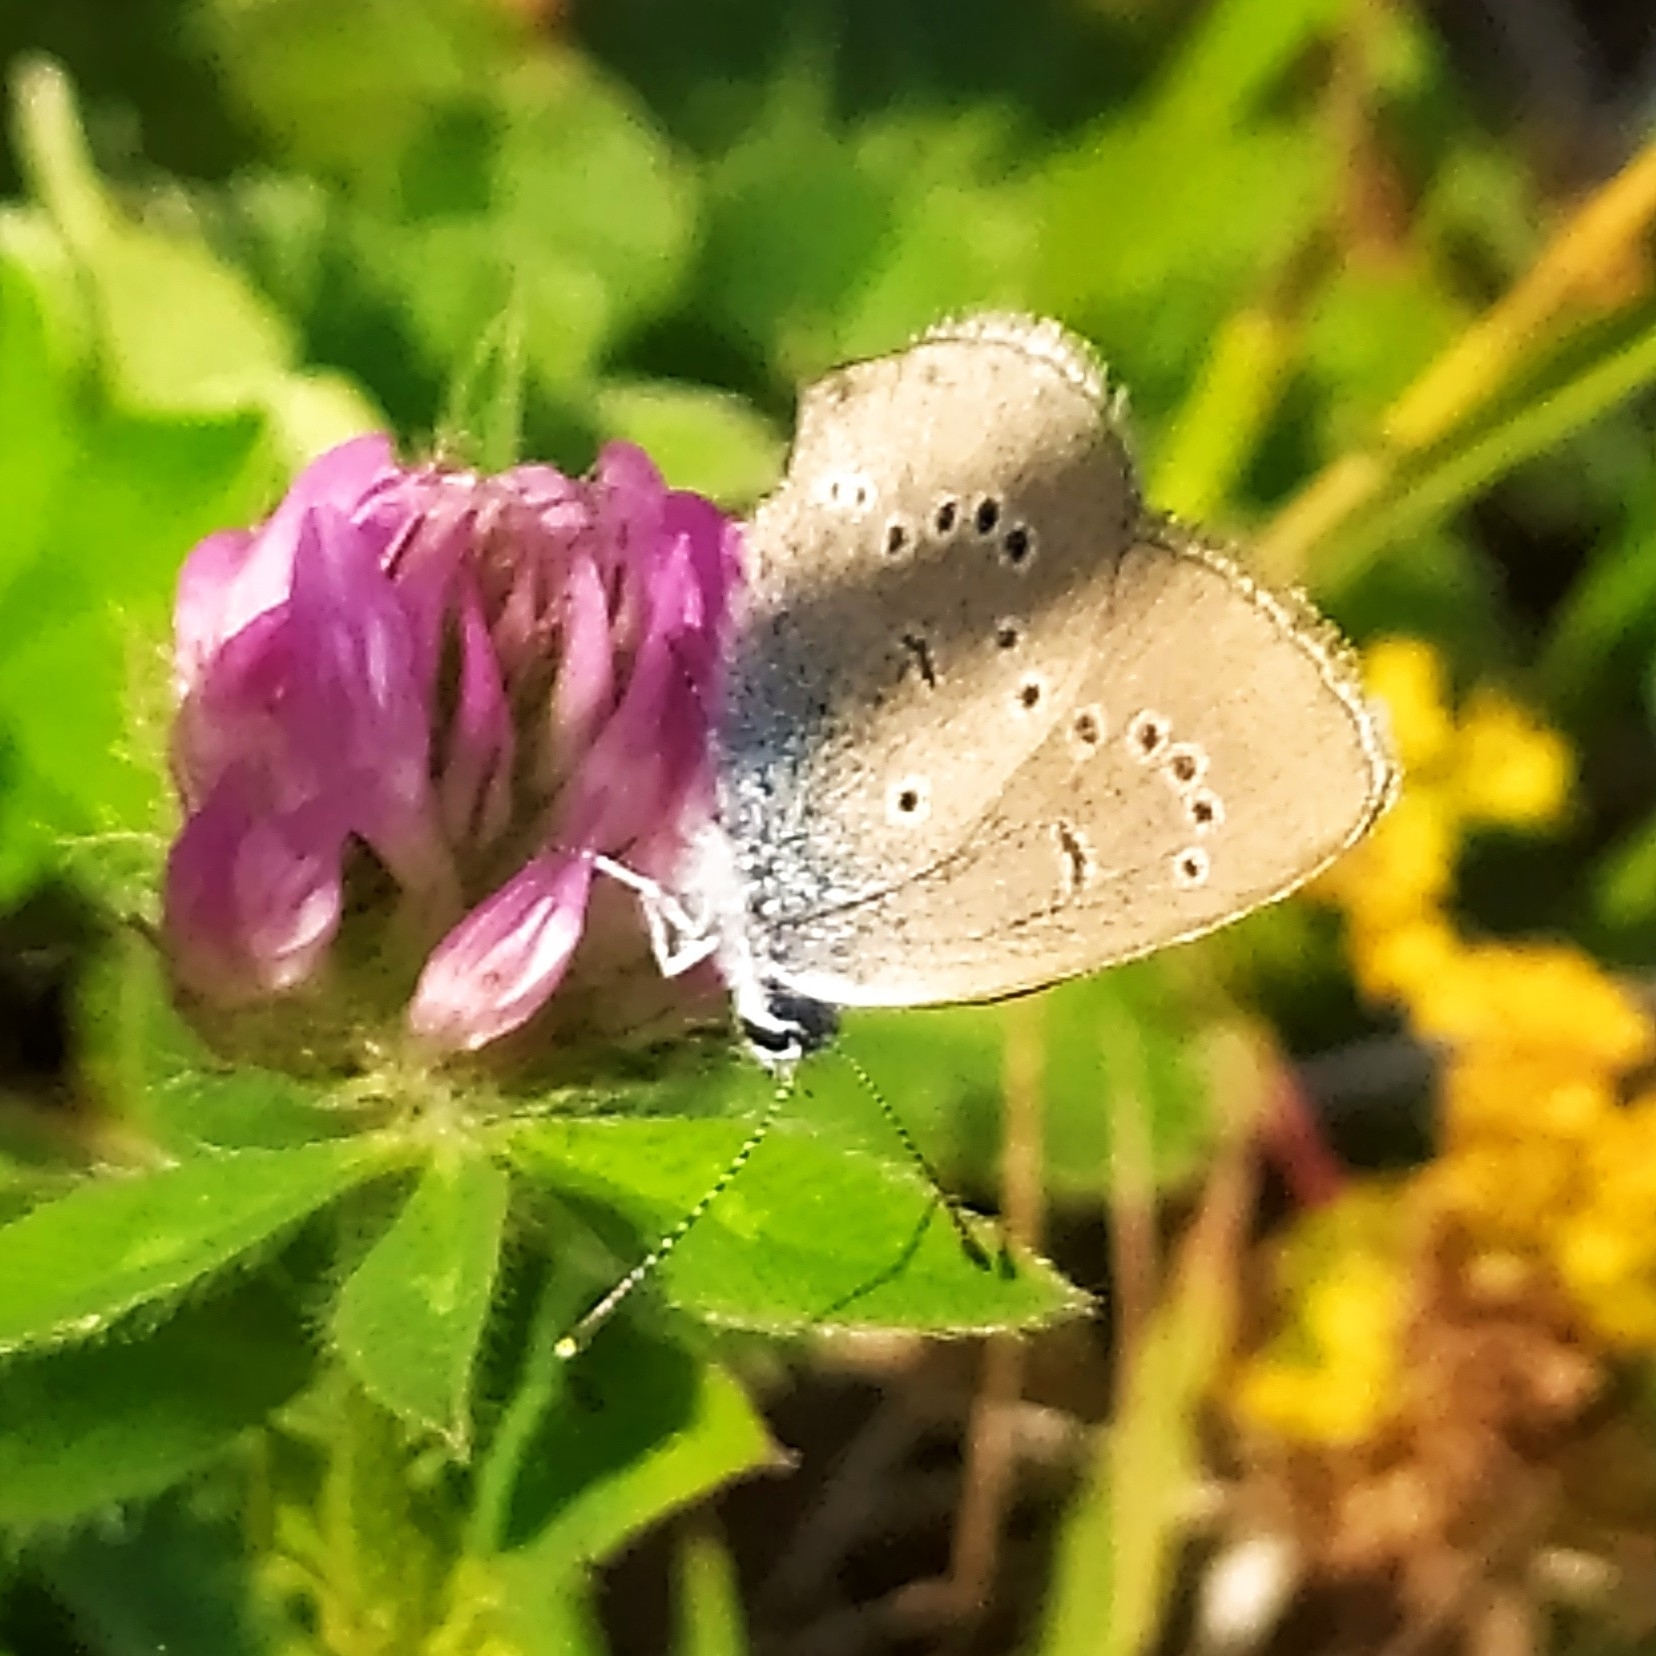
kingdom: Animalia
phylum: Arthropoda
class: Insecta
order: Lepidoptera
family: Lycaenidae
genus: Cyaniris
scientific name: Cyaniris semiargus
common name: Mazarine blue
